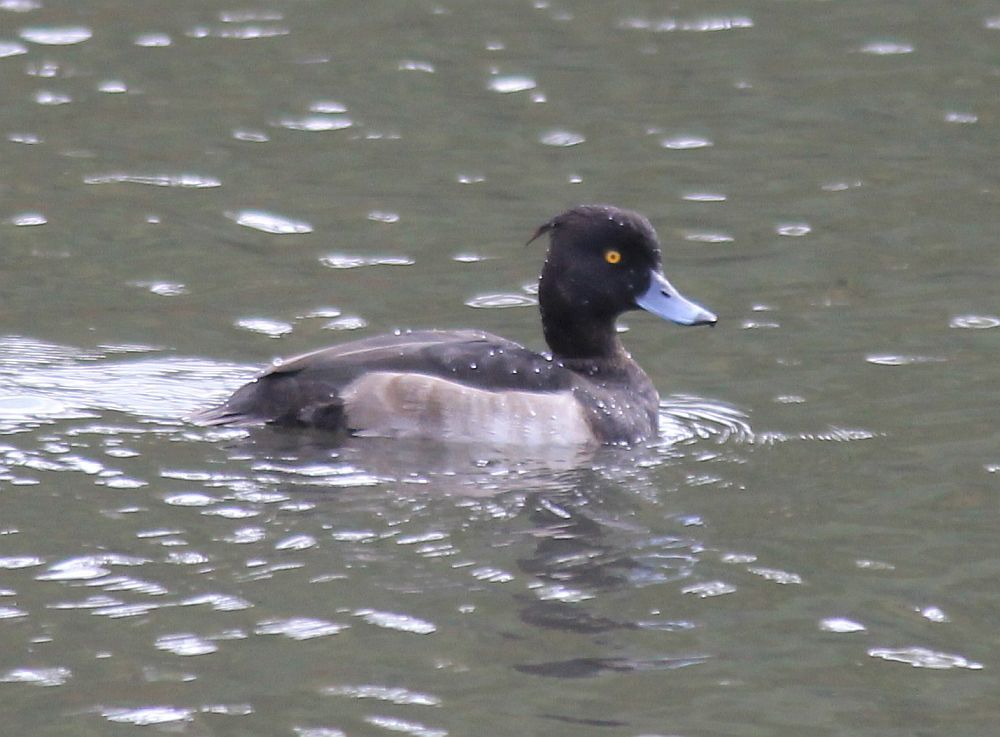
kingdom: Animalia
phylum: Chordata
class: Aves
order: Anseriformes
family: Anatidae
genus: Aythya
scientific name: Aythya fuligula
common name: Tufted duck
